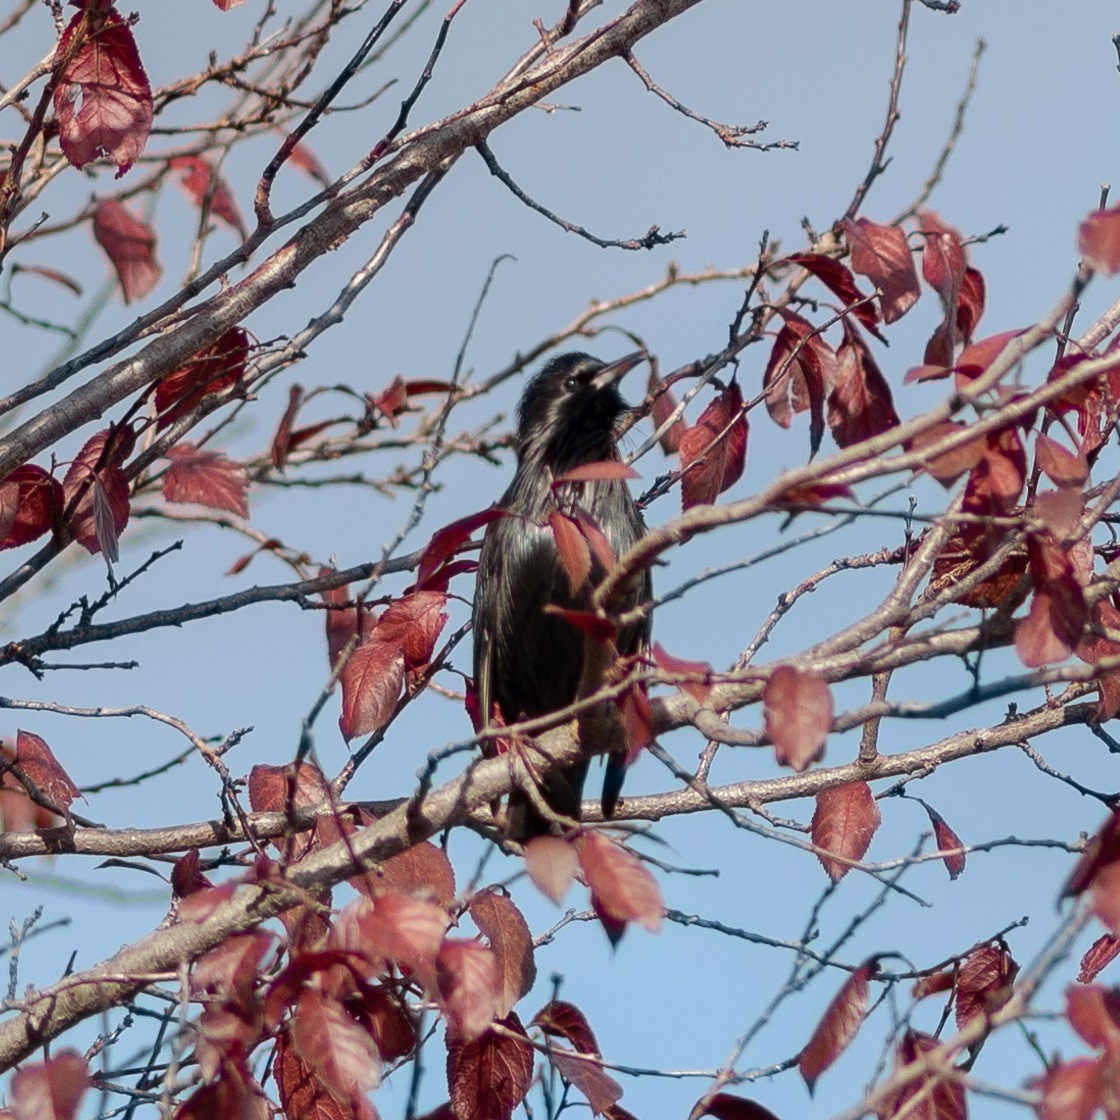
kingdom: Animalia
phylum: Chordata
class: Aves
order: Passeriformes
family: Sturnidae
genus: Sturnus
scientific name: Sturnus unicolor
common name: Spotless starling
